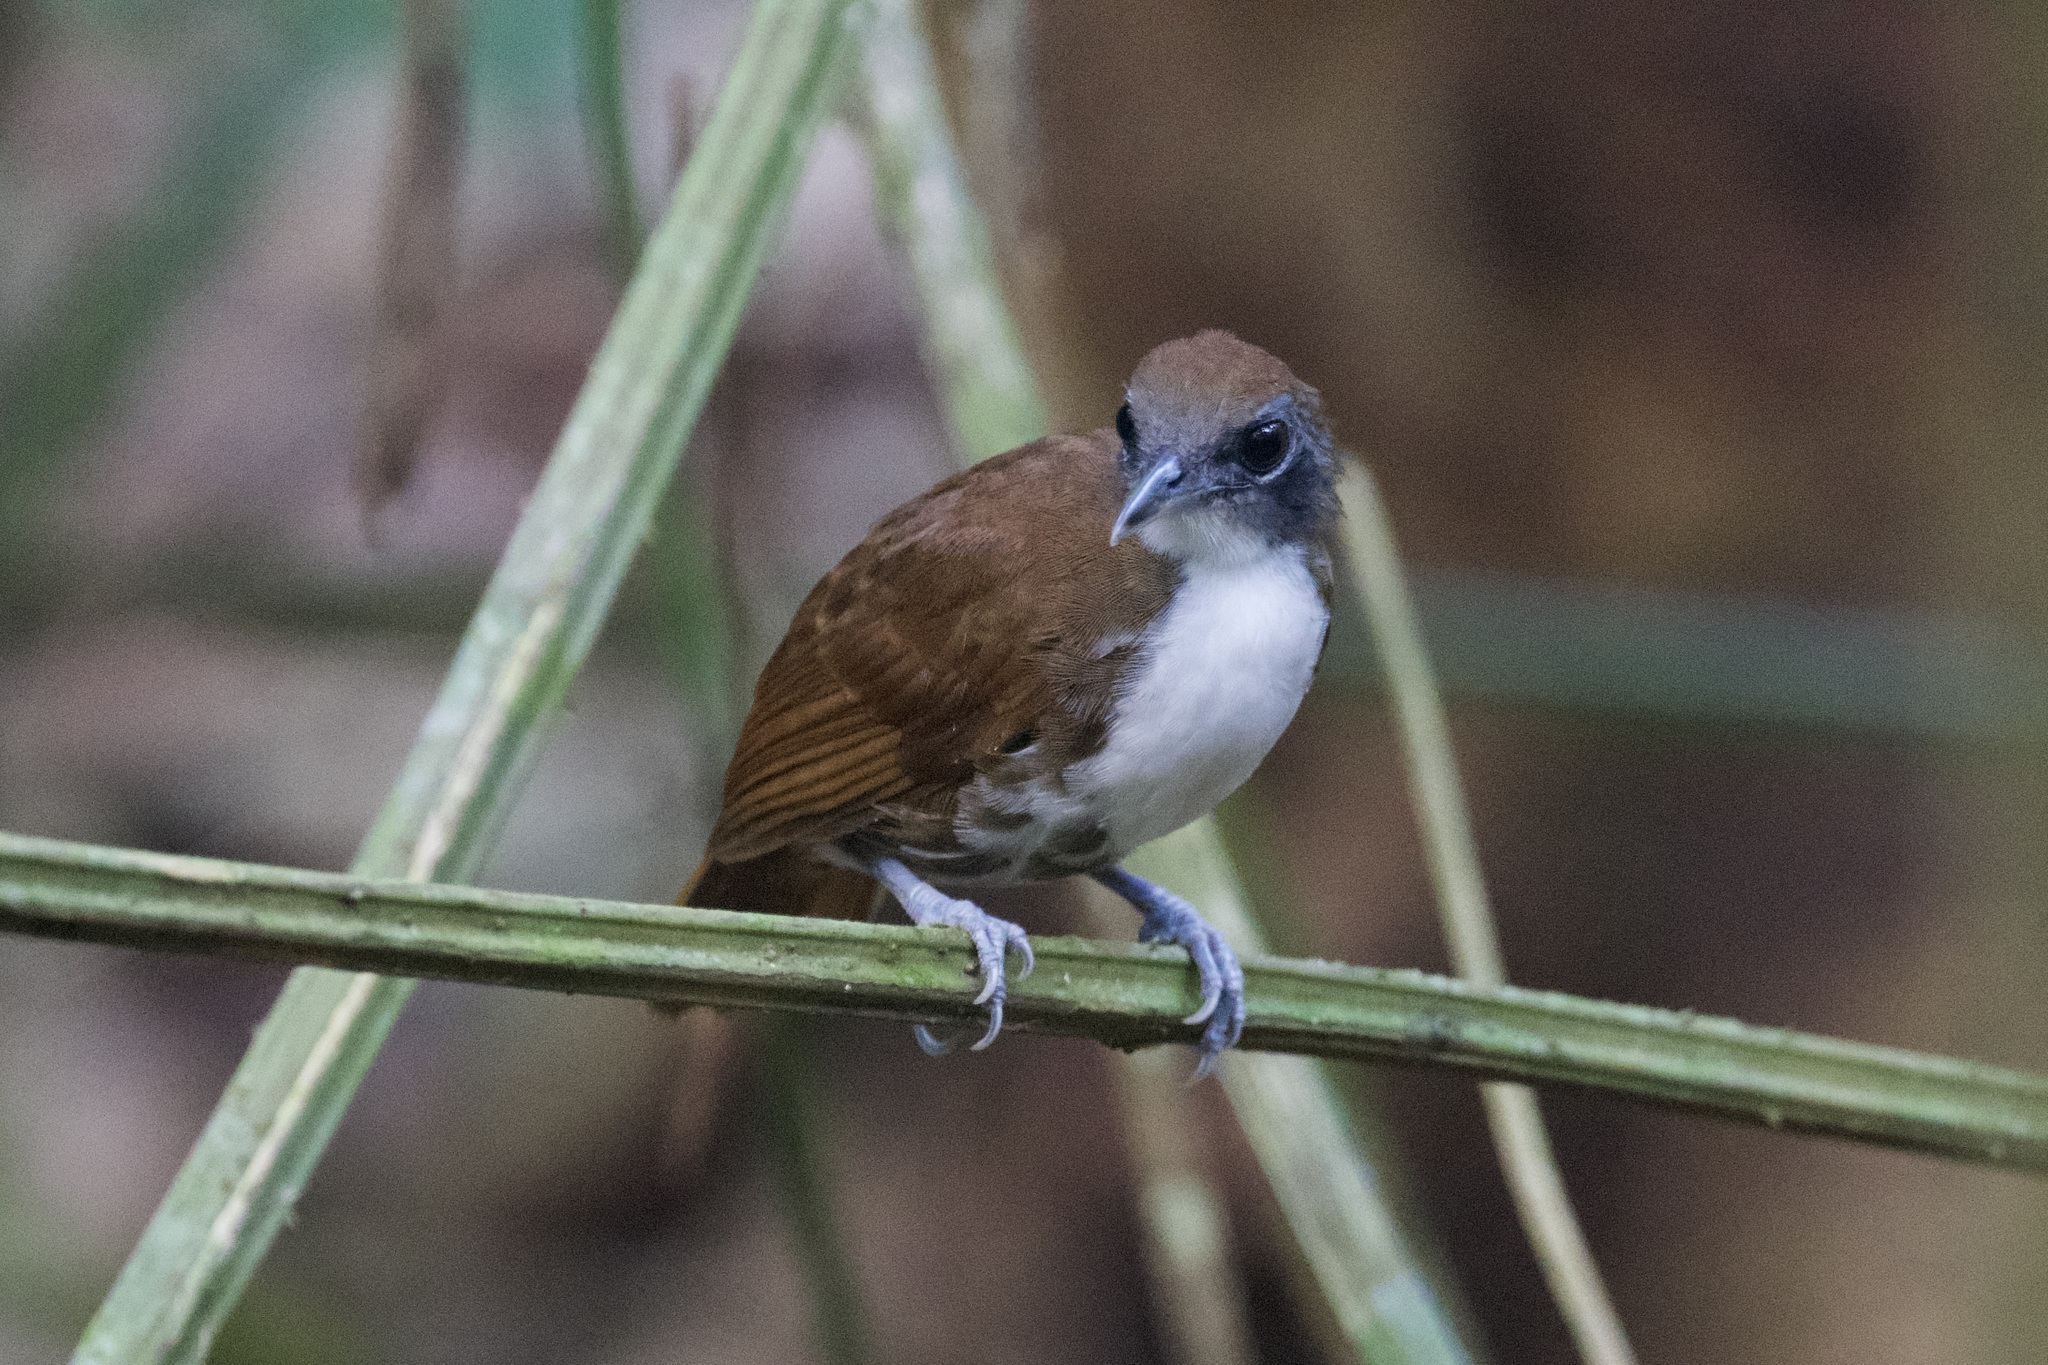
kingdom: Animalia
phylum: Chordata
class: Aves
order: Passeriformes
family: Thamnophilidae
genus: Gymnopithys
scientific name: Gymnopithys leucaspis
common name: White-cheeked antbird
